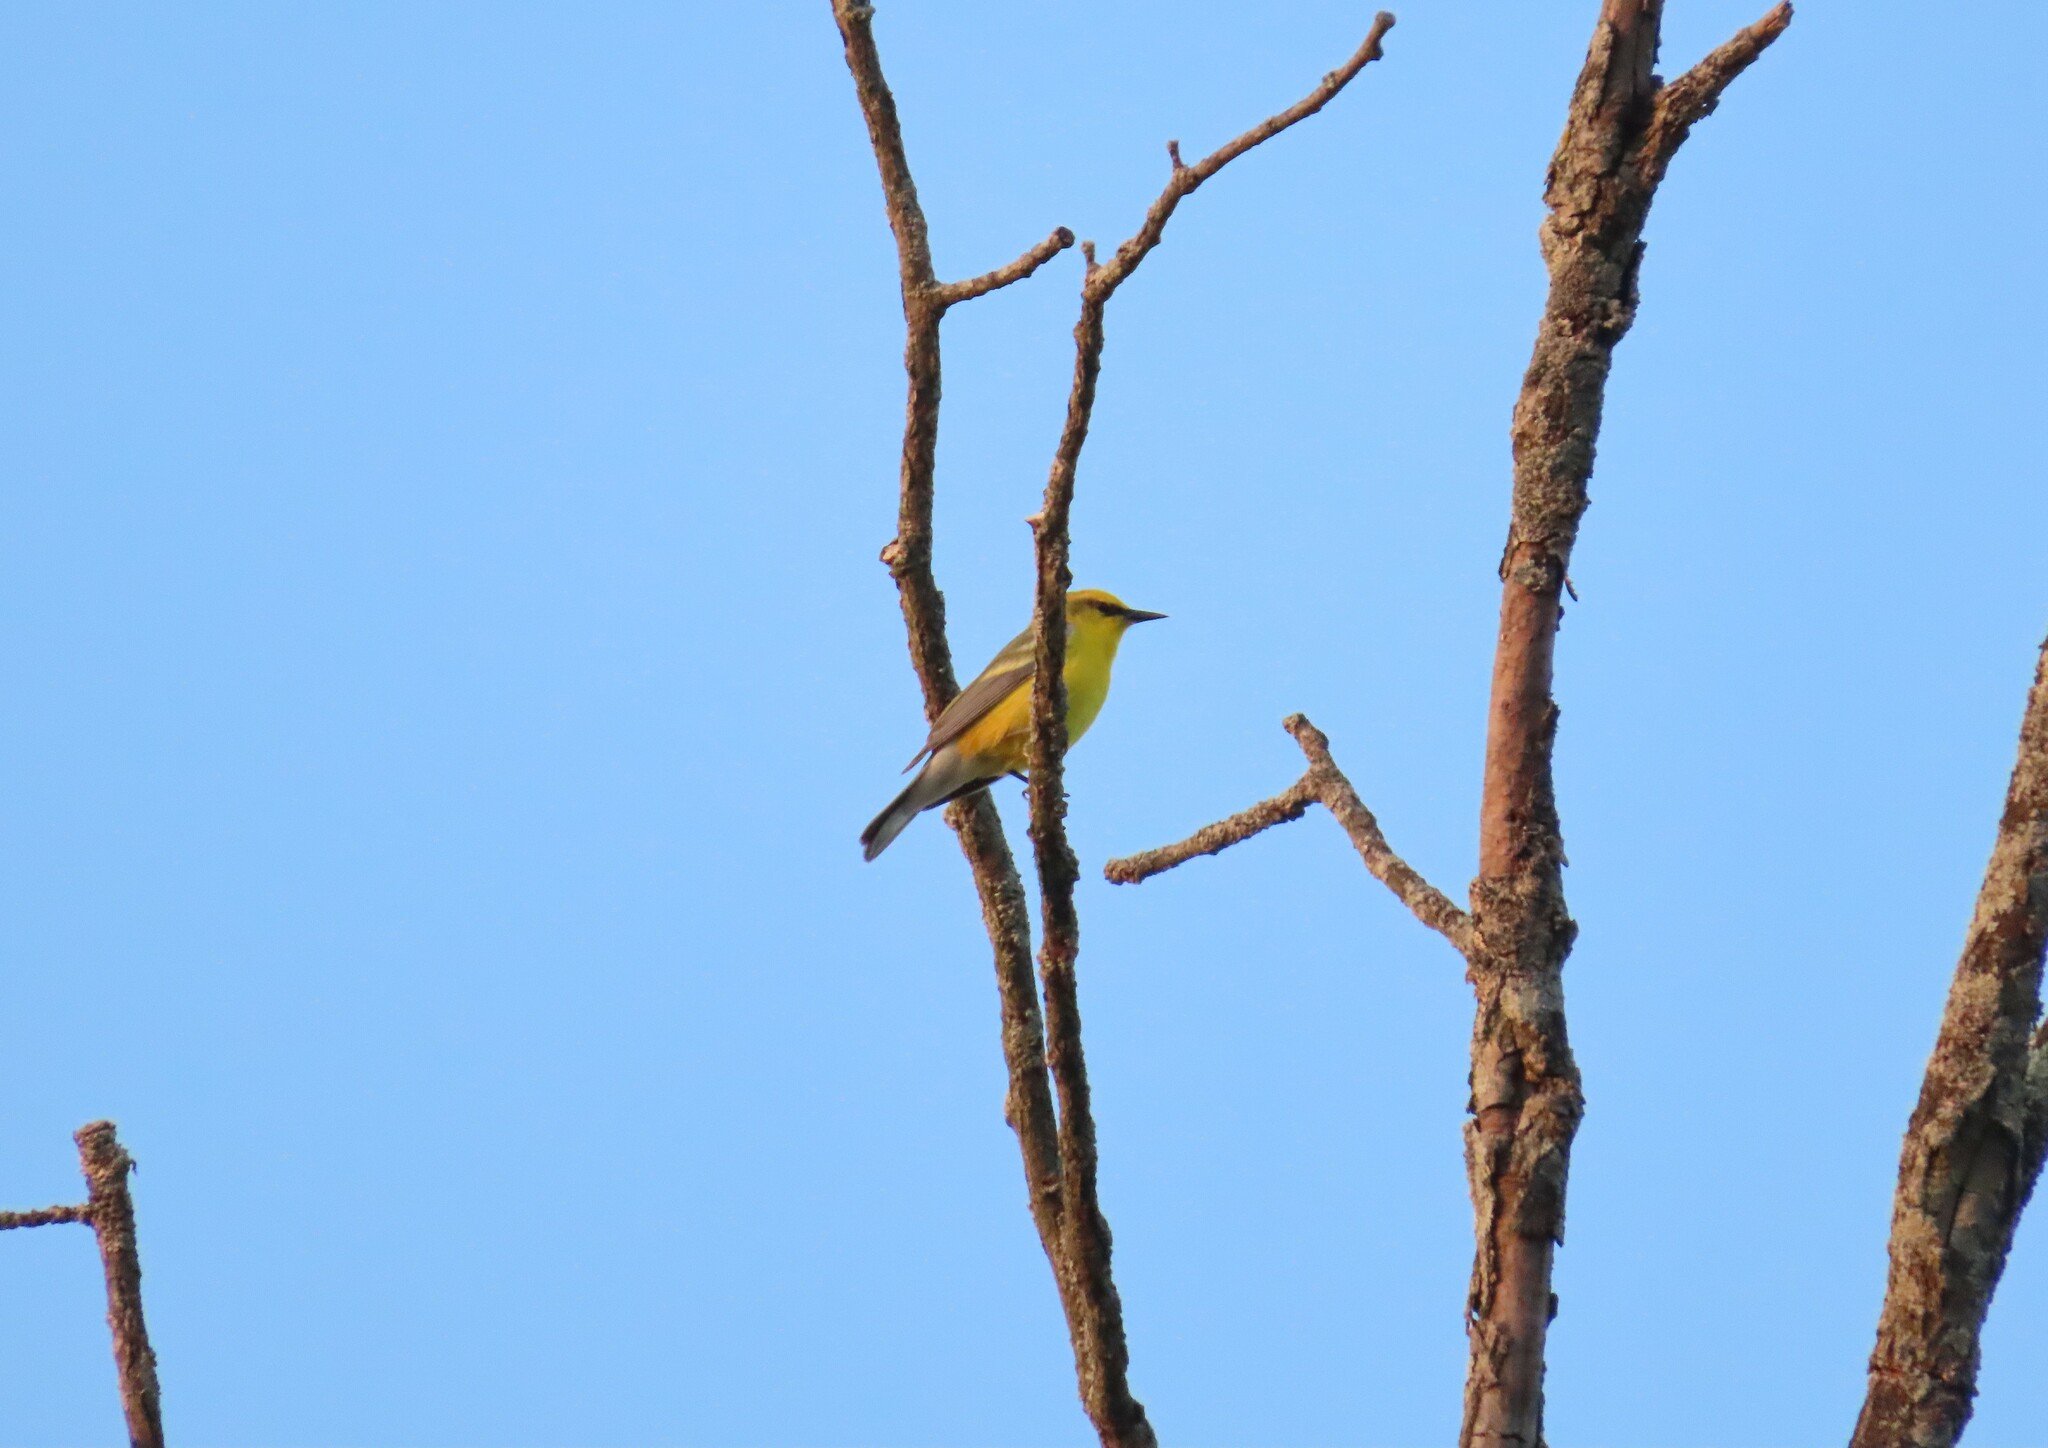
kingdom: Animalia
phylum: Chordata
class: Aves
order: Passeriformes
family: Parulidae
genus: Vermivora
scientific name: Vermivora cyanoptera
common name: Blue-winged warbler
